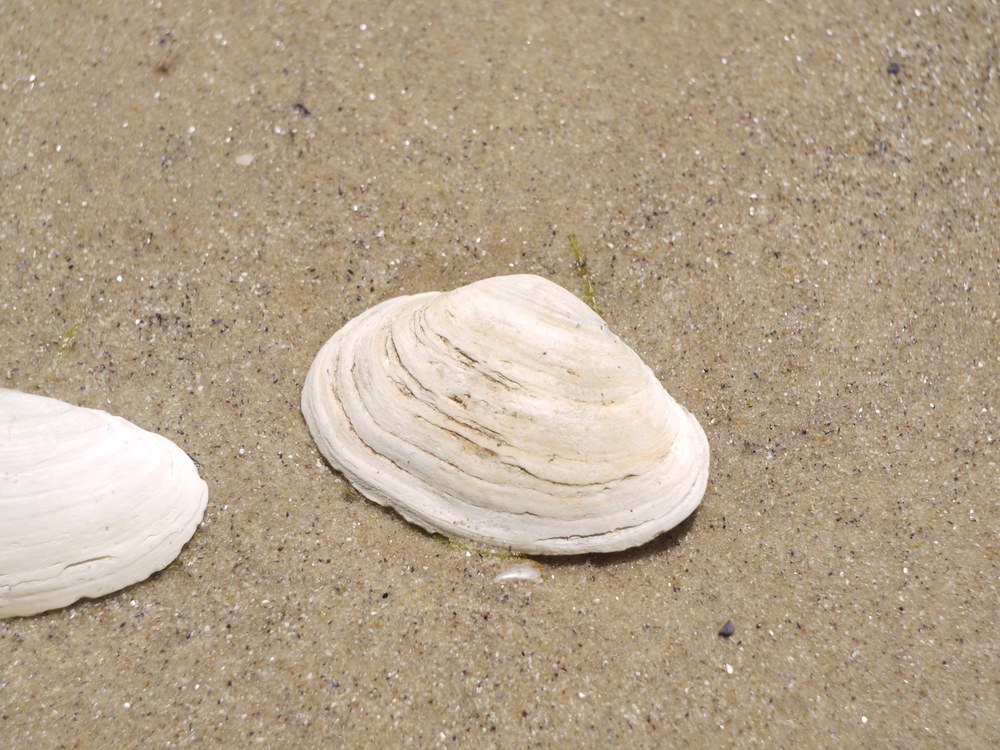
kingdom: Animalia
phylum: Mollusca
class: Bivalvia
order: Myida
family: Myidae
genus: Mya
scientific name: Mya arenaria
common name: Soft-shelled clam
